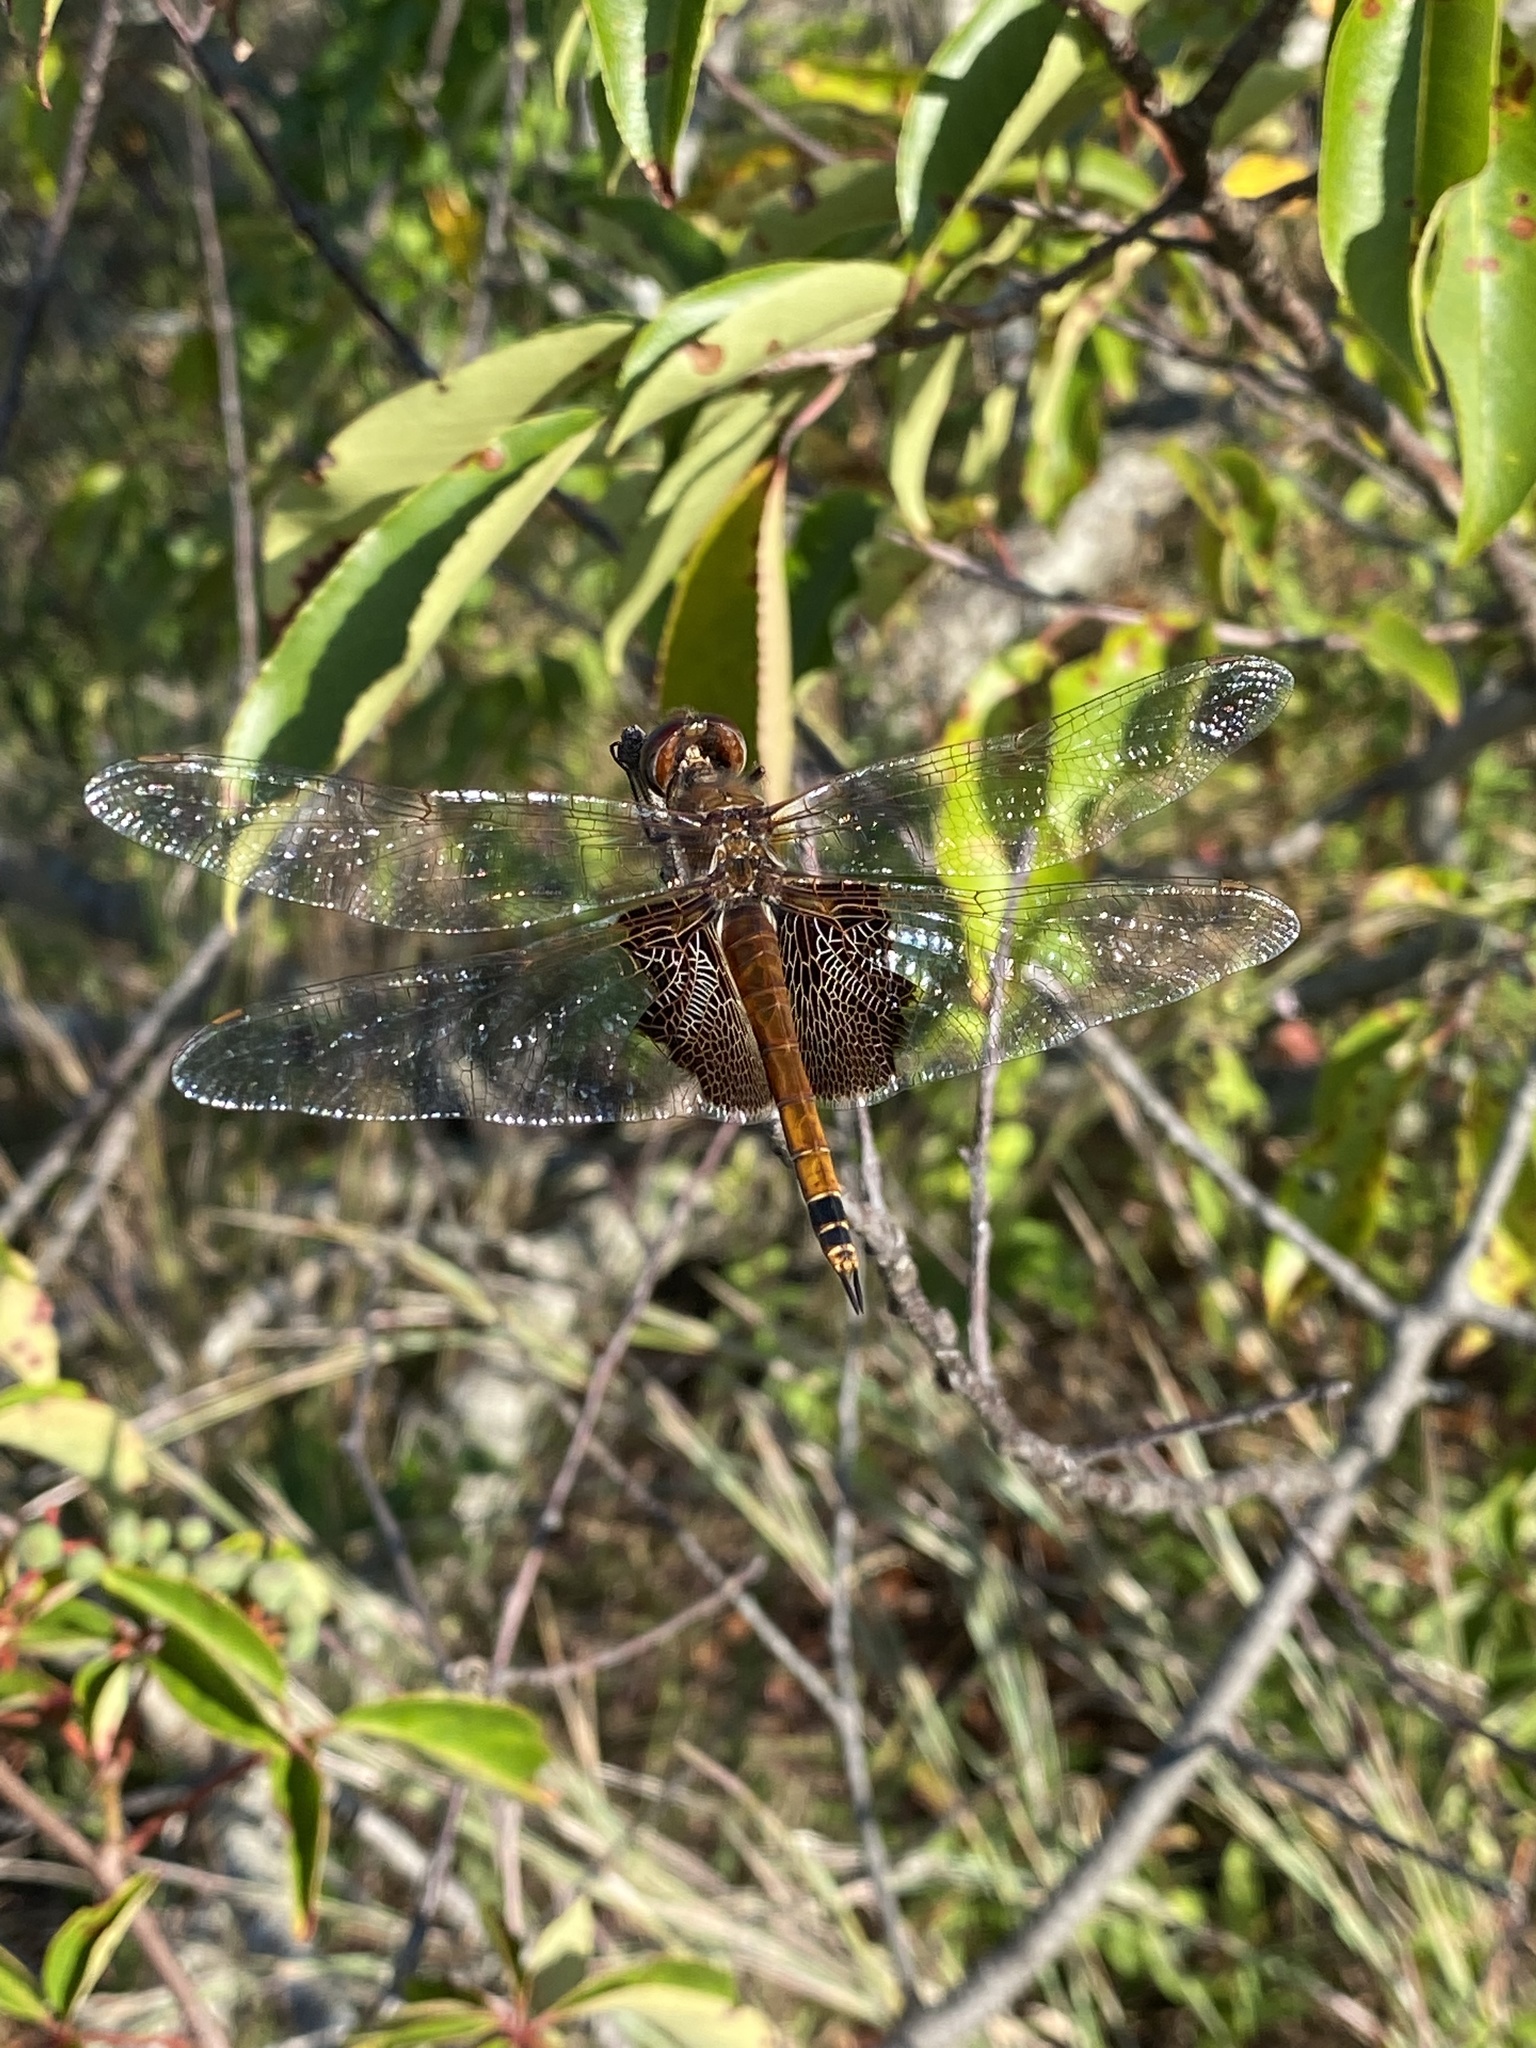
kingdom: Animalia
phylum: Arthropoda
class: Insecta
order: Odonata
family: Libellulidae
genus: Tramea
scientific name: Tramea carolina
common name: Carolina saddlebags
